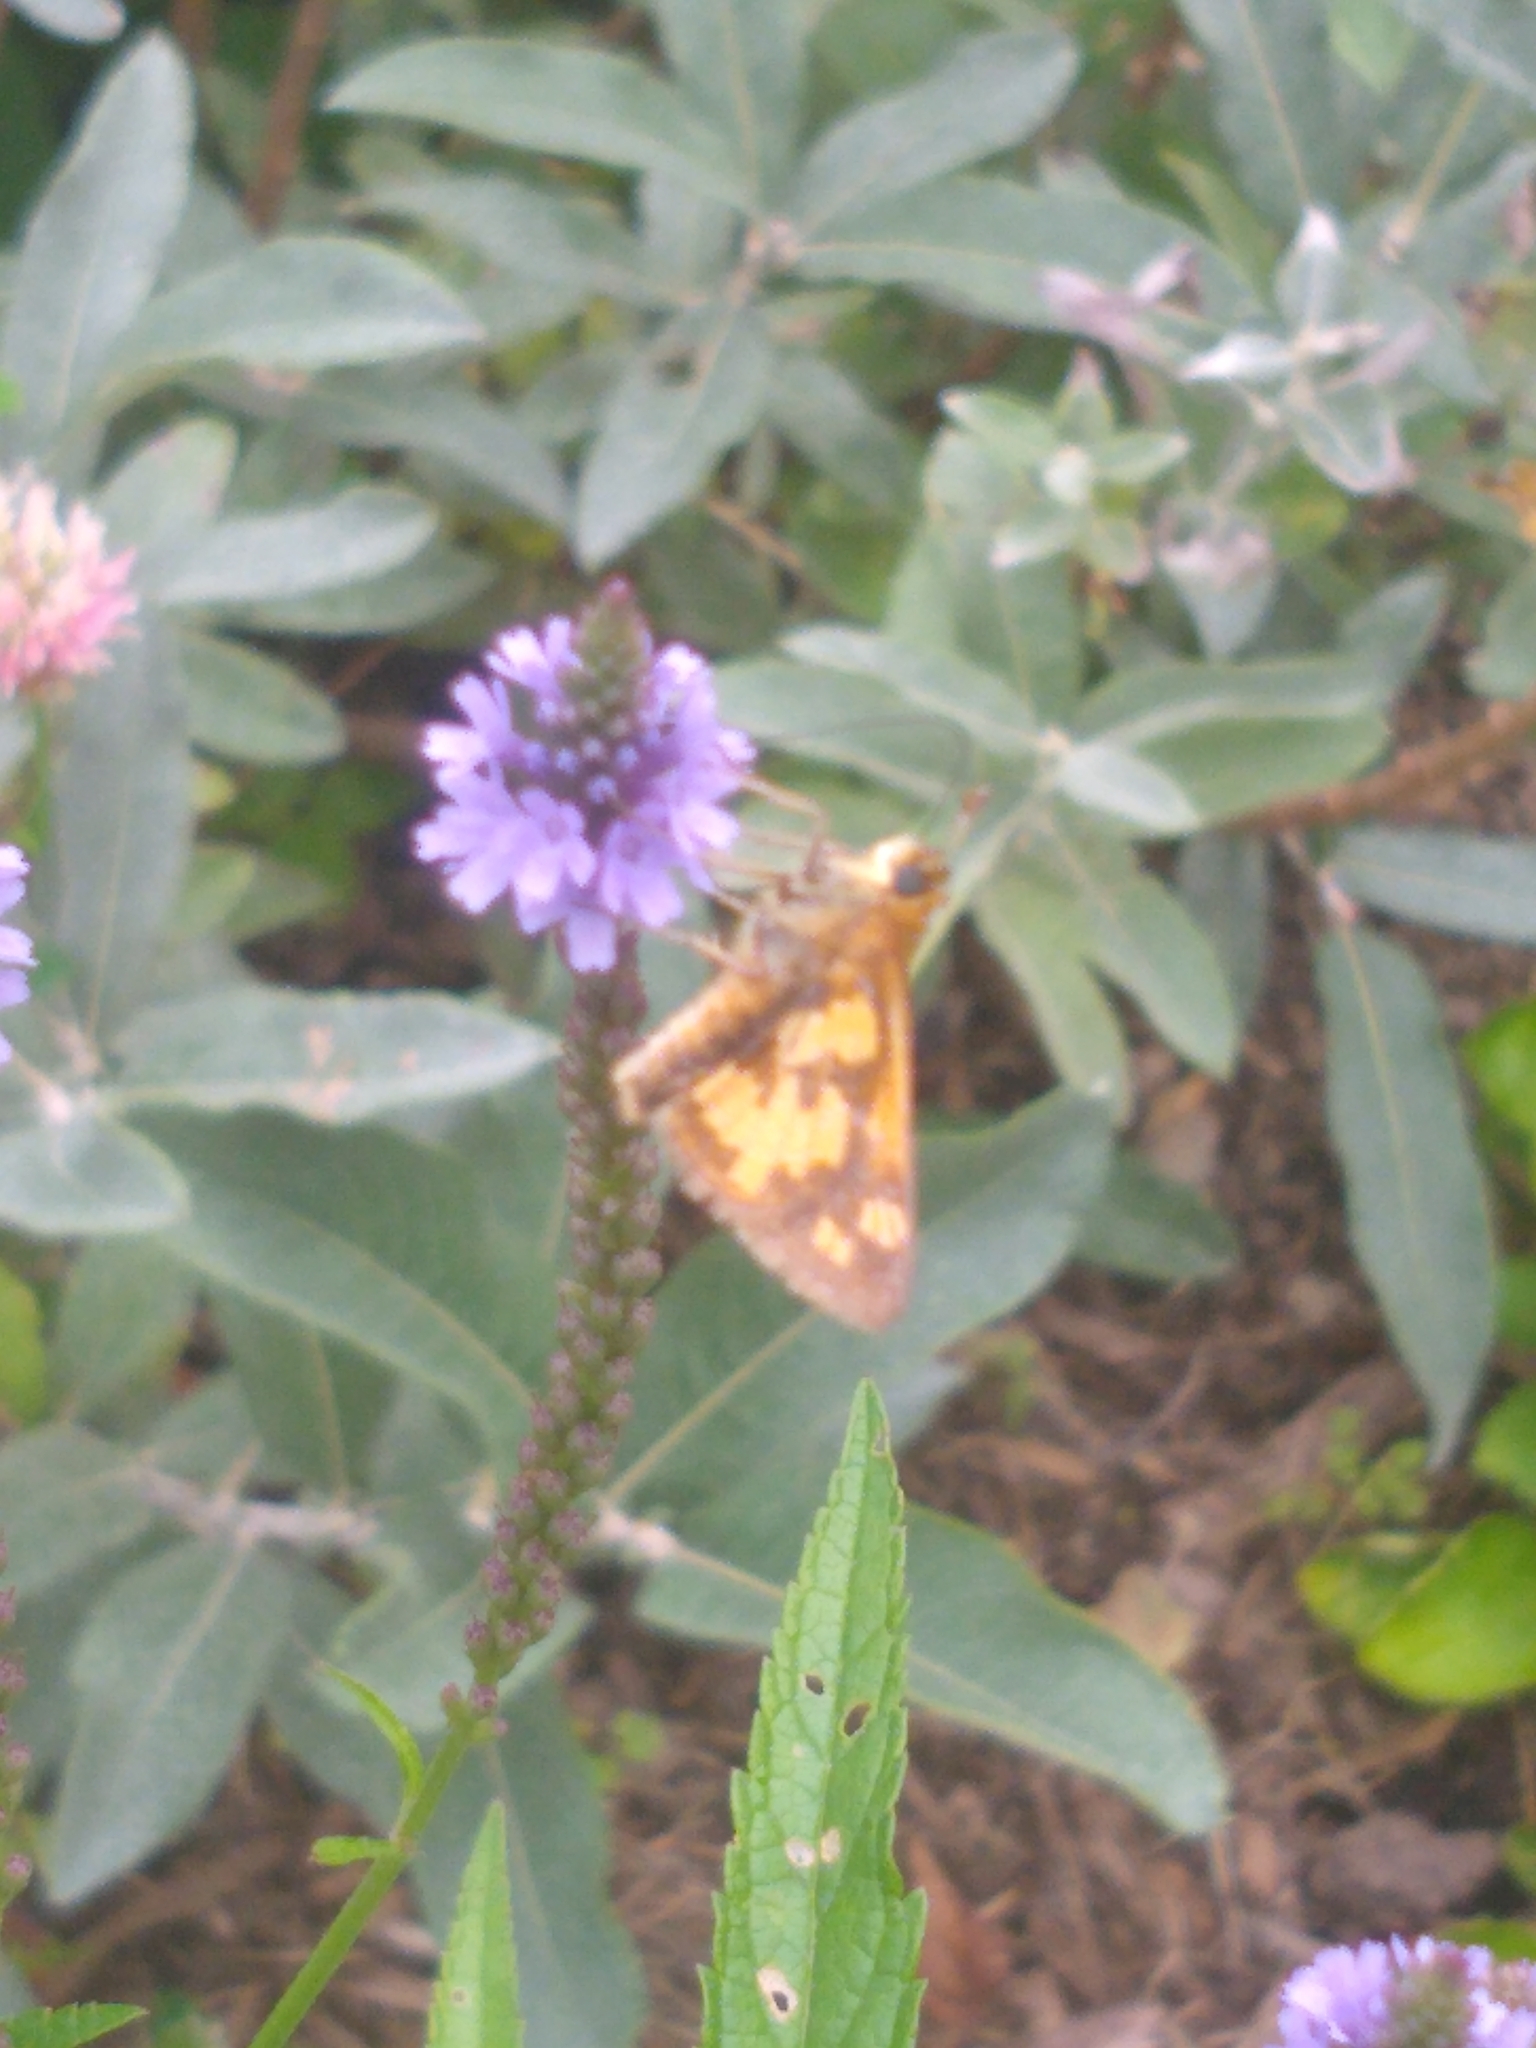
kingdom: Animalia
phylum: Arthropoda
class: Insecta
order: Lepidoptera
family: Hesperiidae
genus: Polites
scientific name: Polites coras
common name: Peck's skipper
